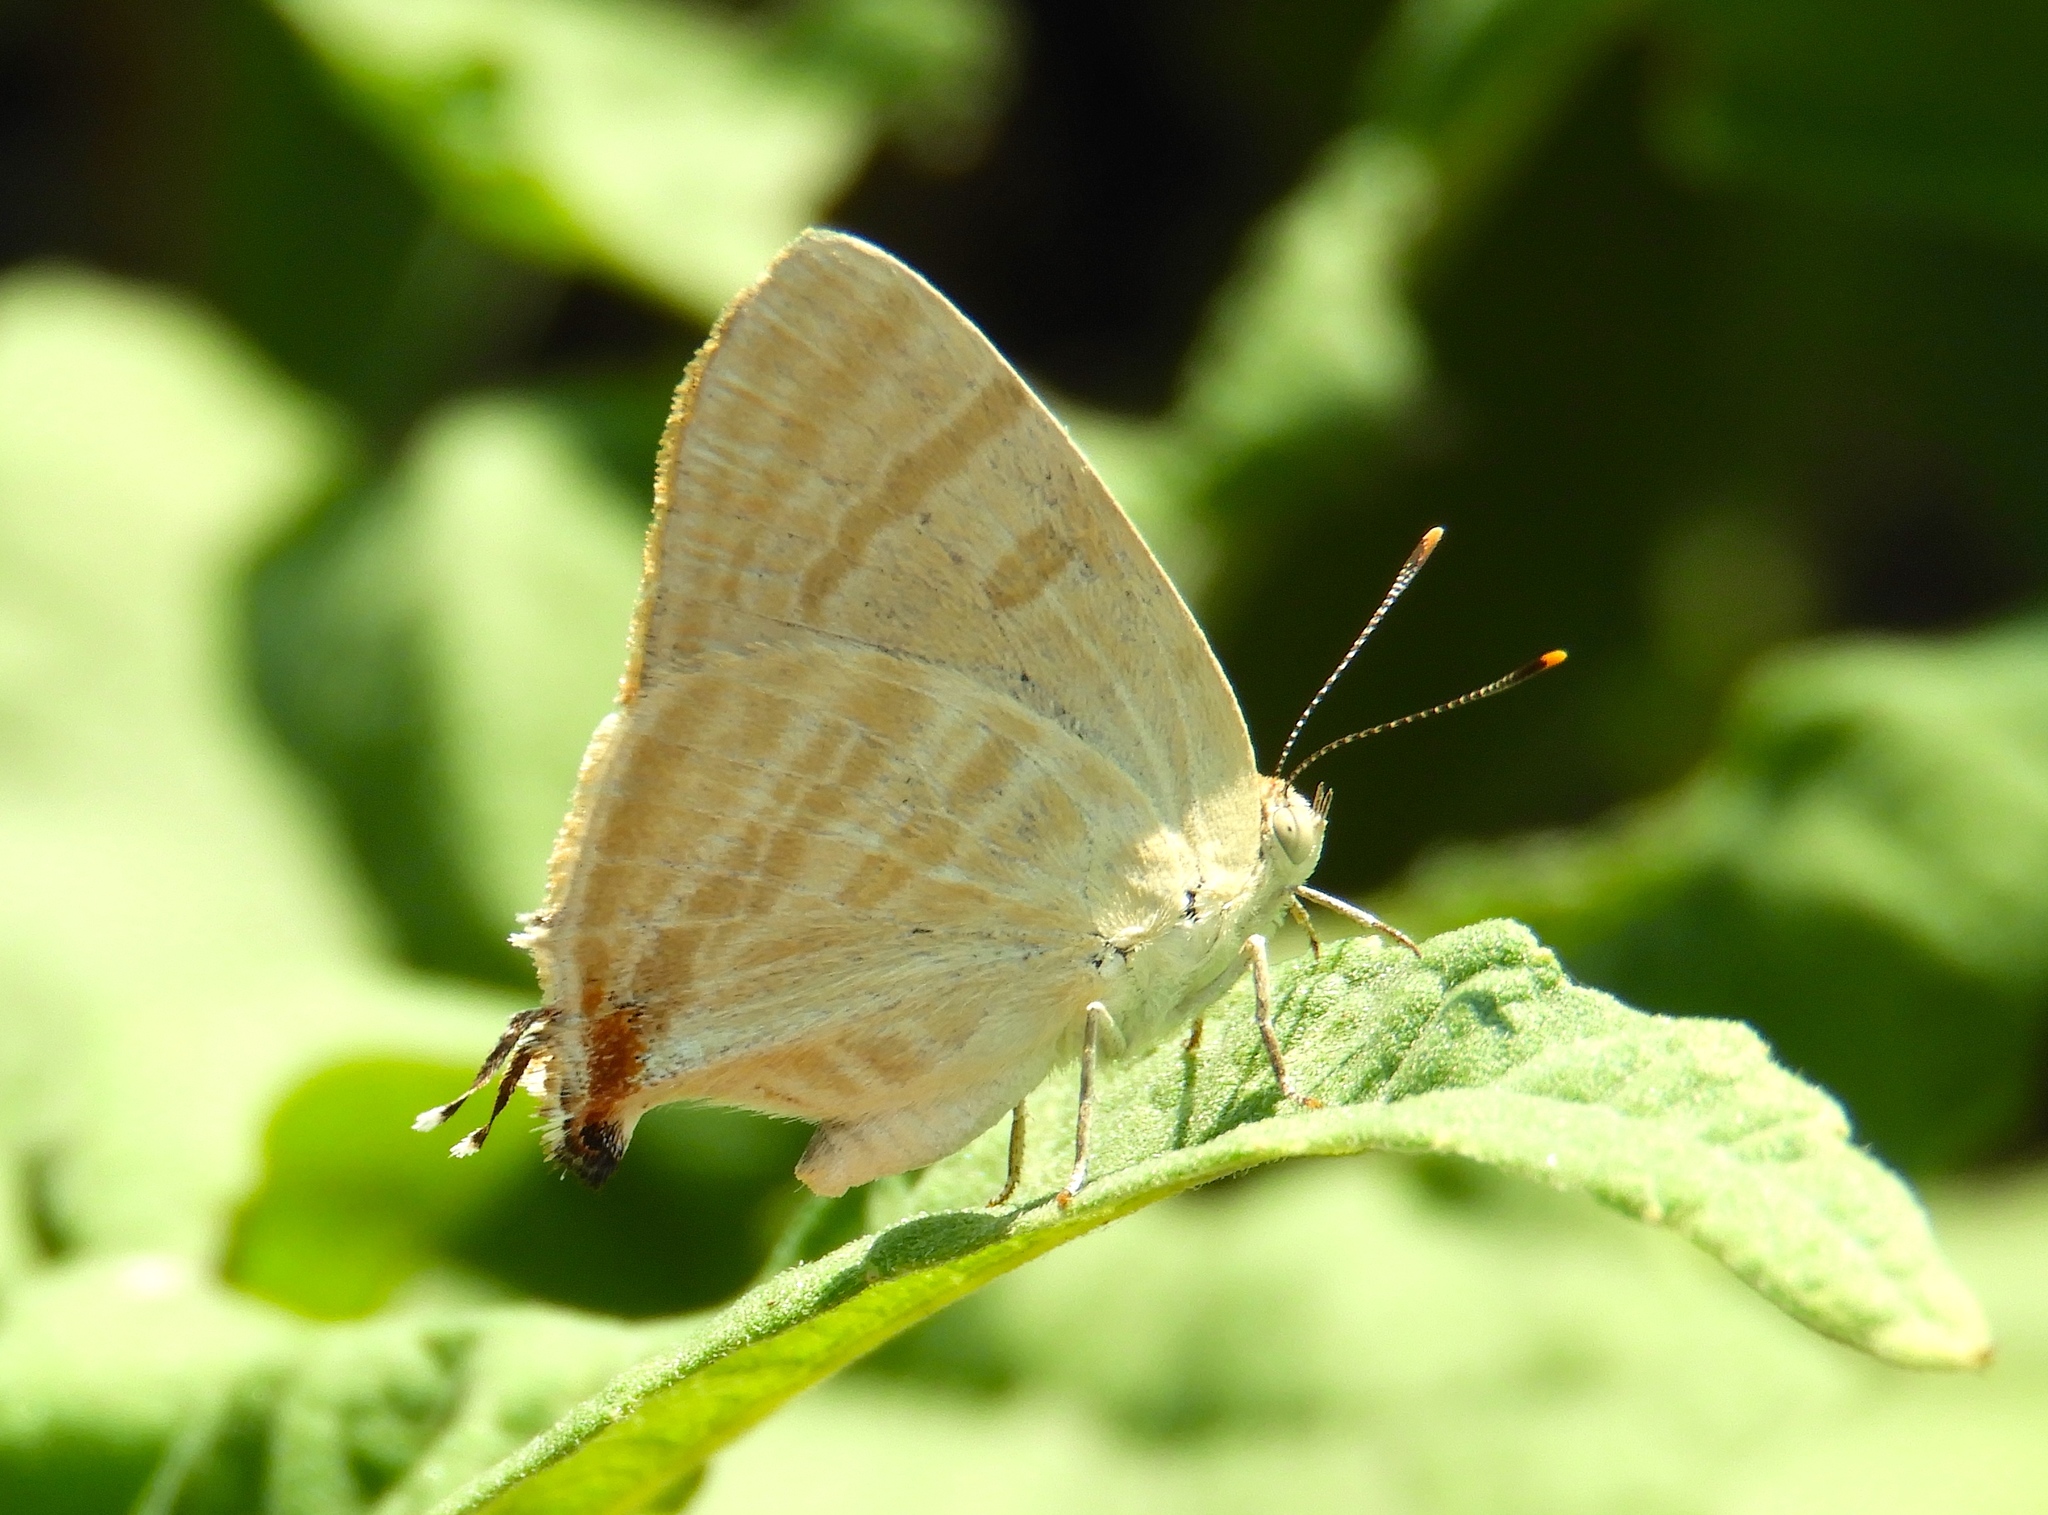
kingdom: Animalia
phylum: Arthropoda
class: Insecta
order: Lepidoptera
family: Lycaenidae
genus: Dolymorpha
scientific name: Dolymorpha jada
